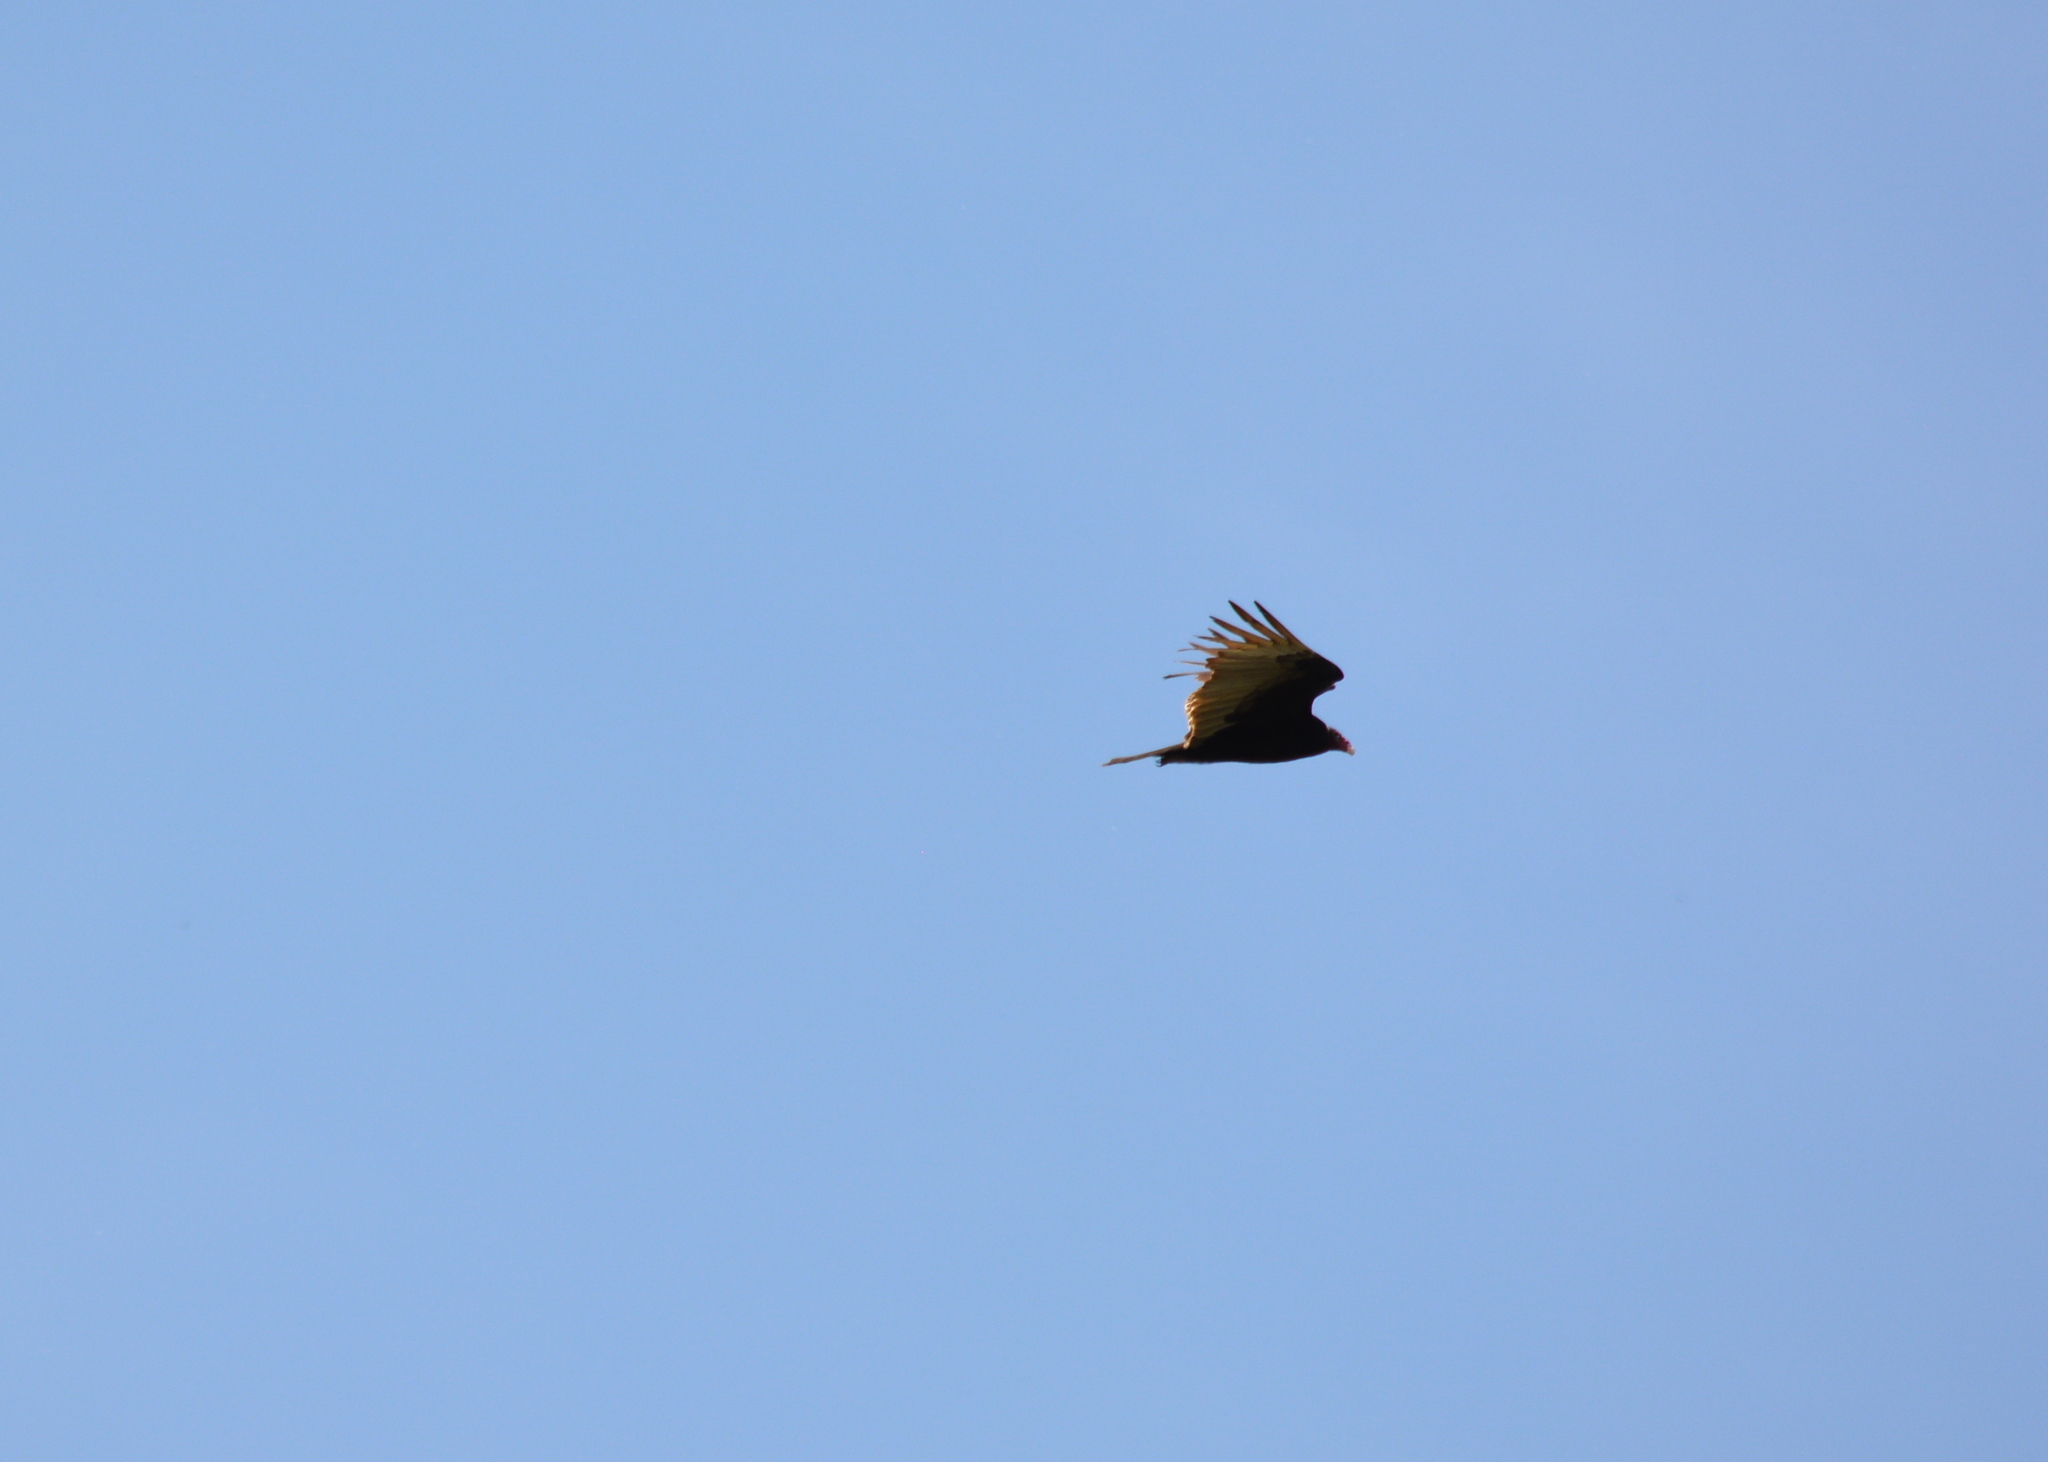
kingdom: Animalia
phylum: Chordata
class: Aves
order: Accipitriformes
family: Cathartidae
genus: Cathartes
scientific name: Cathartes aura
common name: Turkey vulture
